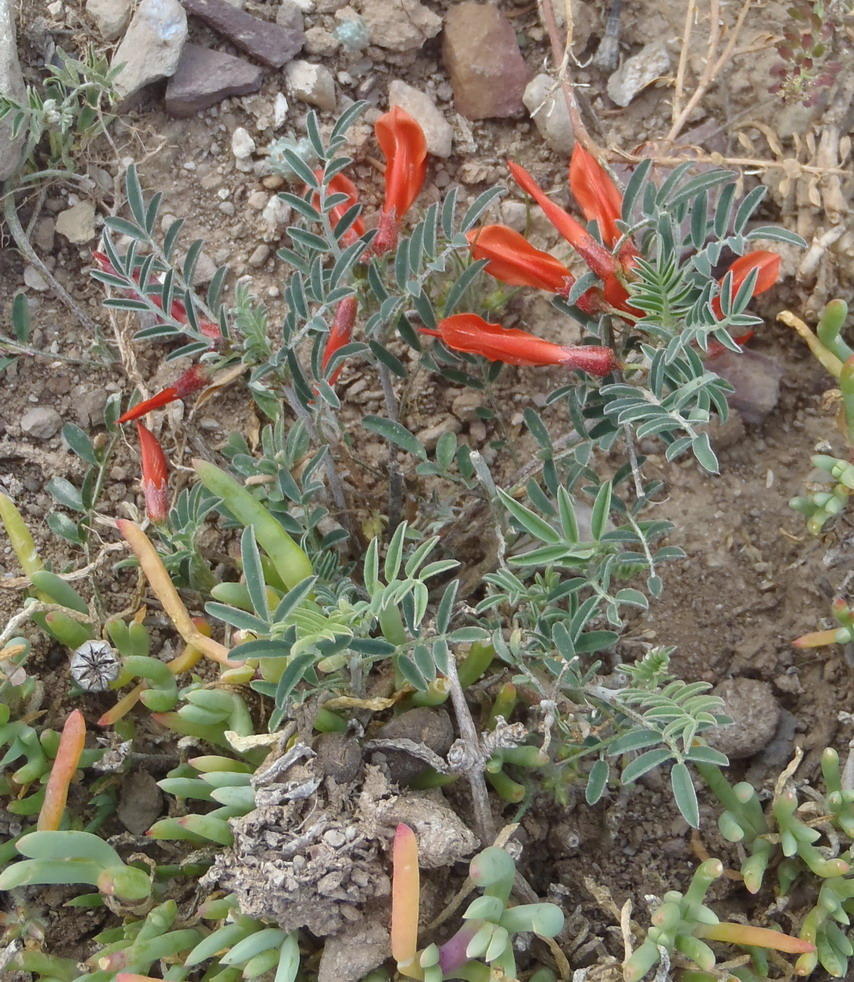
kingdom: Plantae
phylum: Tracheophyta
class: Magnoliopsida
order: Fabales
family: Fabaceae
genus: Lessertia
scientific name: Lessertia frutescens
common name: Balloon-pea
